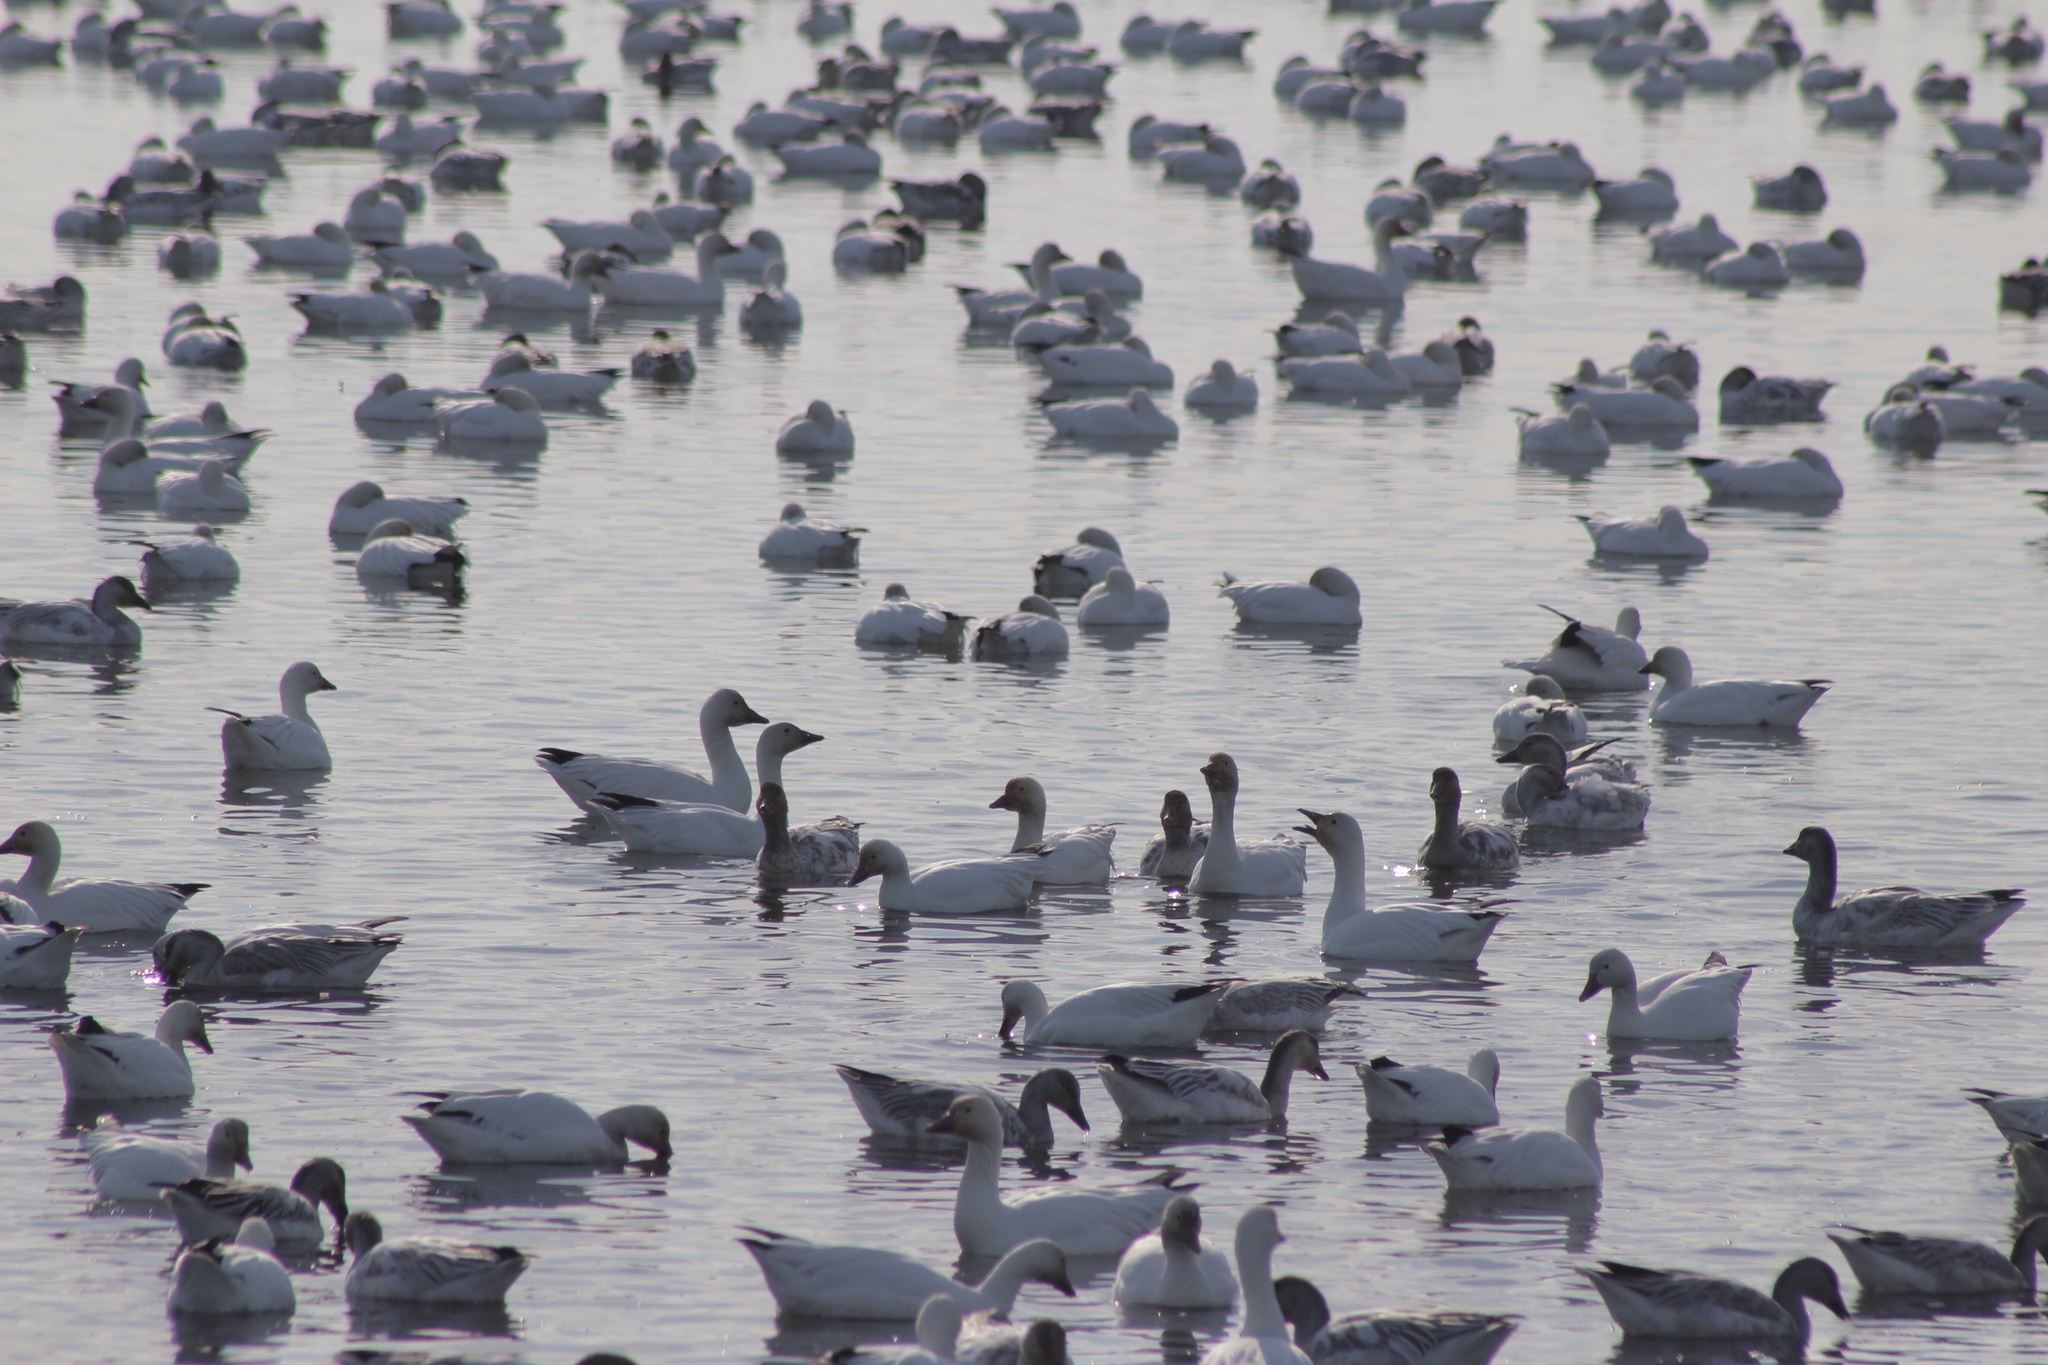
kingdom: Animalia
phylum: Chordata
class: Aves
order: Anseriformes
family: Anatidae
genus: Anser
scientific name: Anser caerulescens
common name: Snow goose
